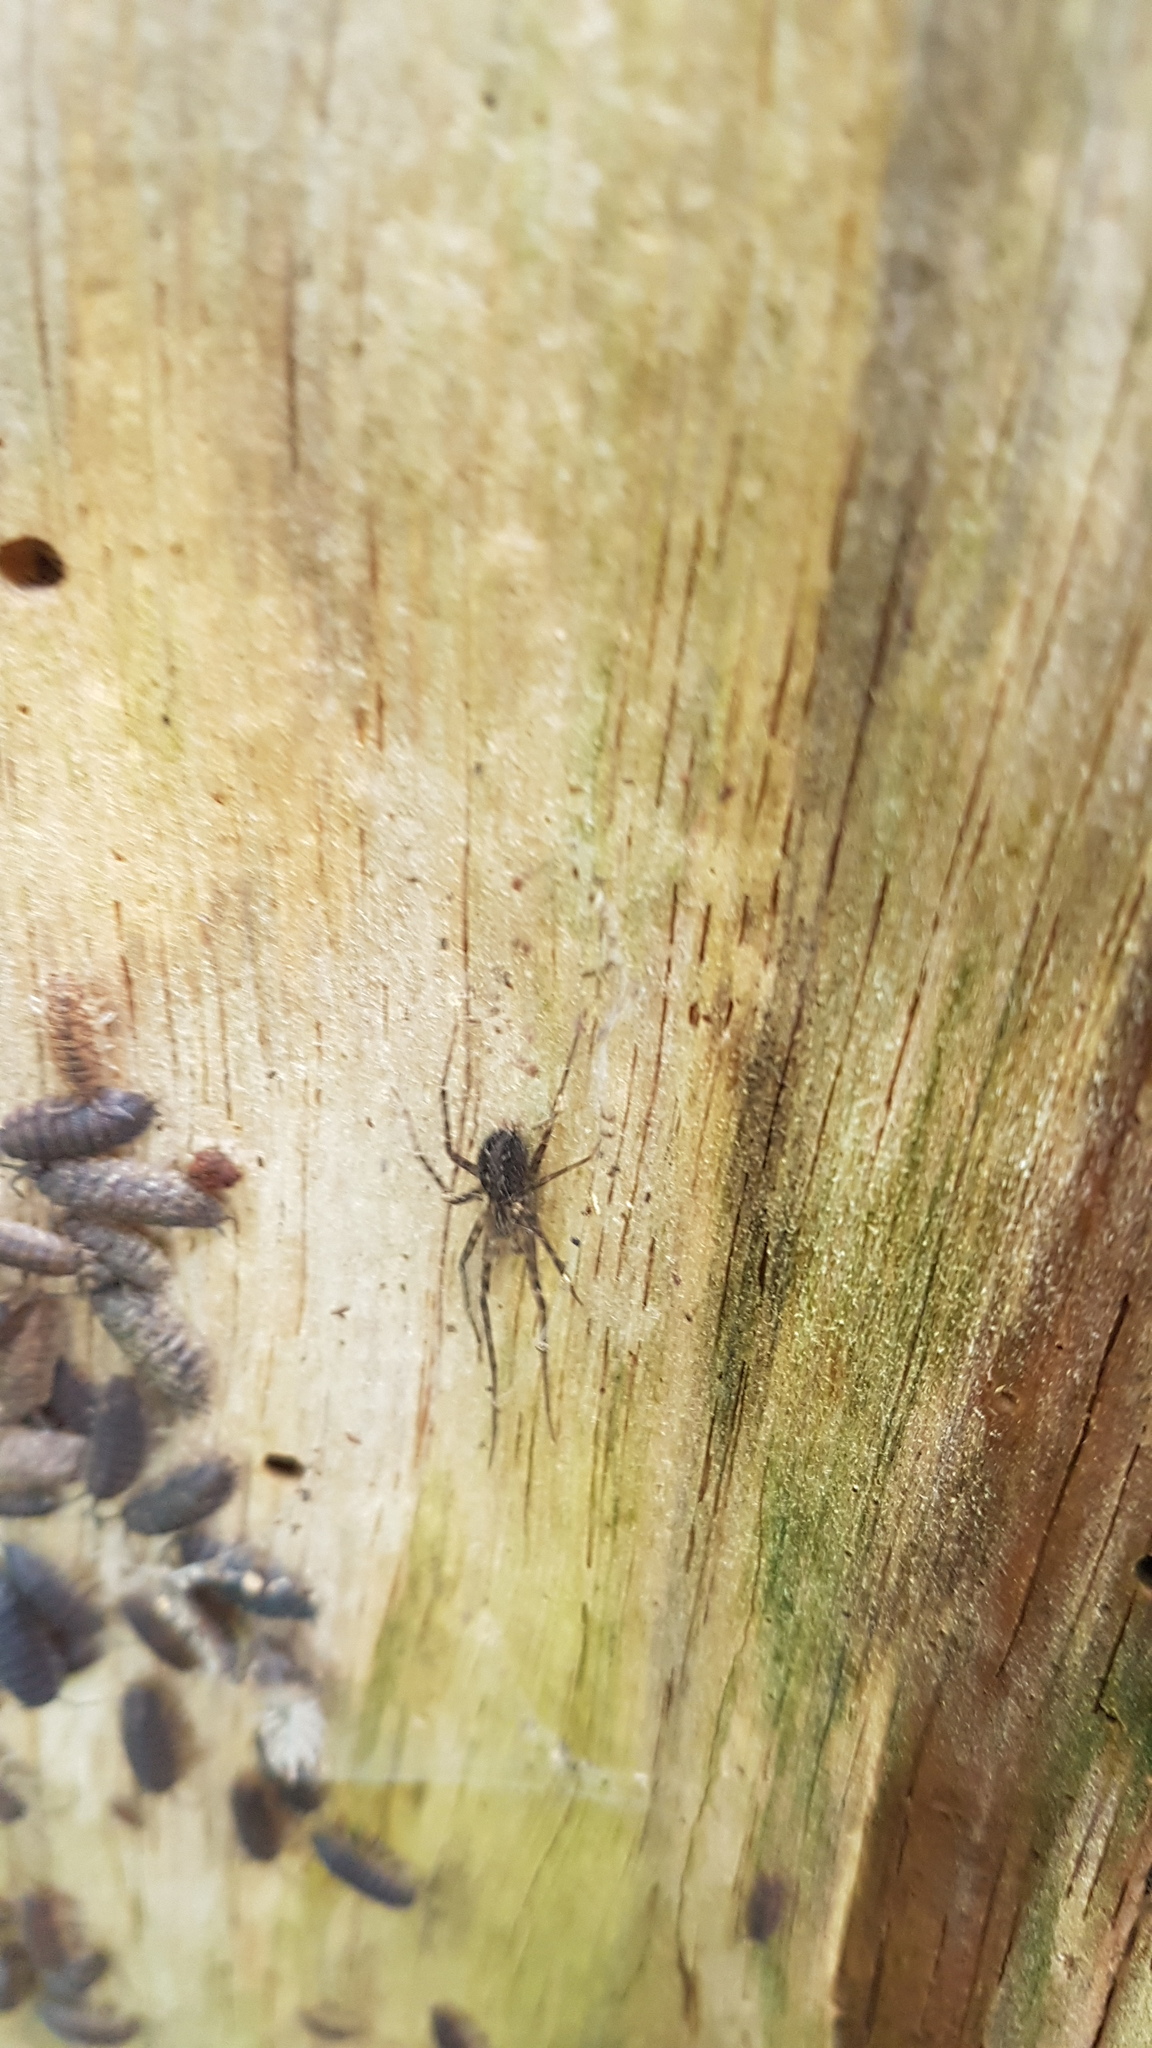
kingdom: Animalia
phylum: Arthropoda
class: Arachnida
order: Araneae
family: Stiphidiidae
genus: Stiphidion
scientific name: Stiphidion facetum
